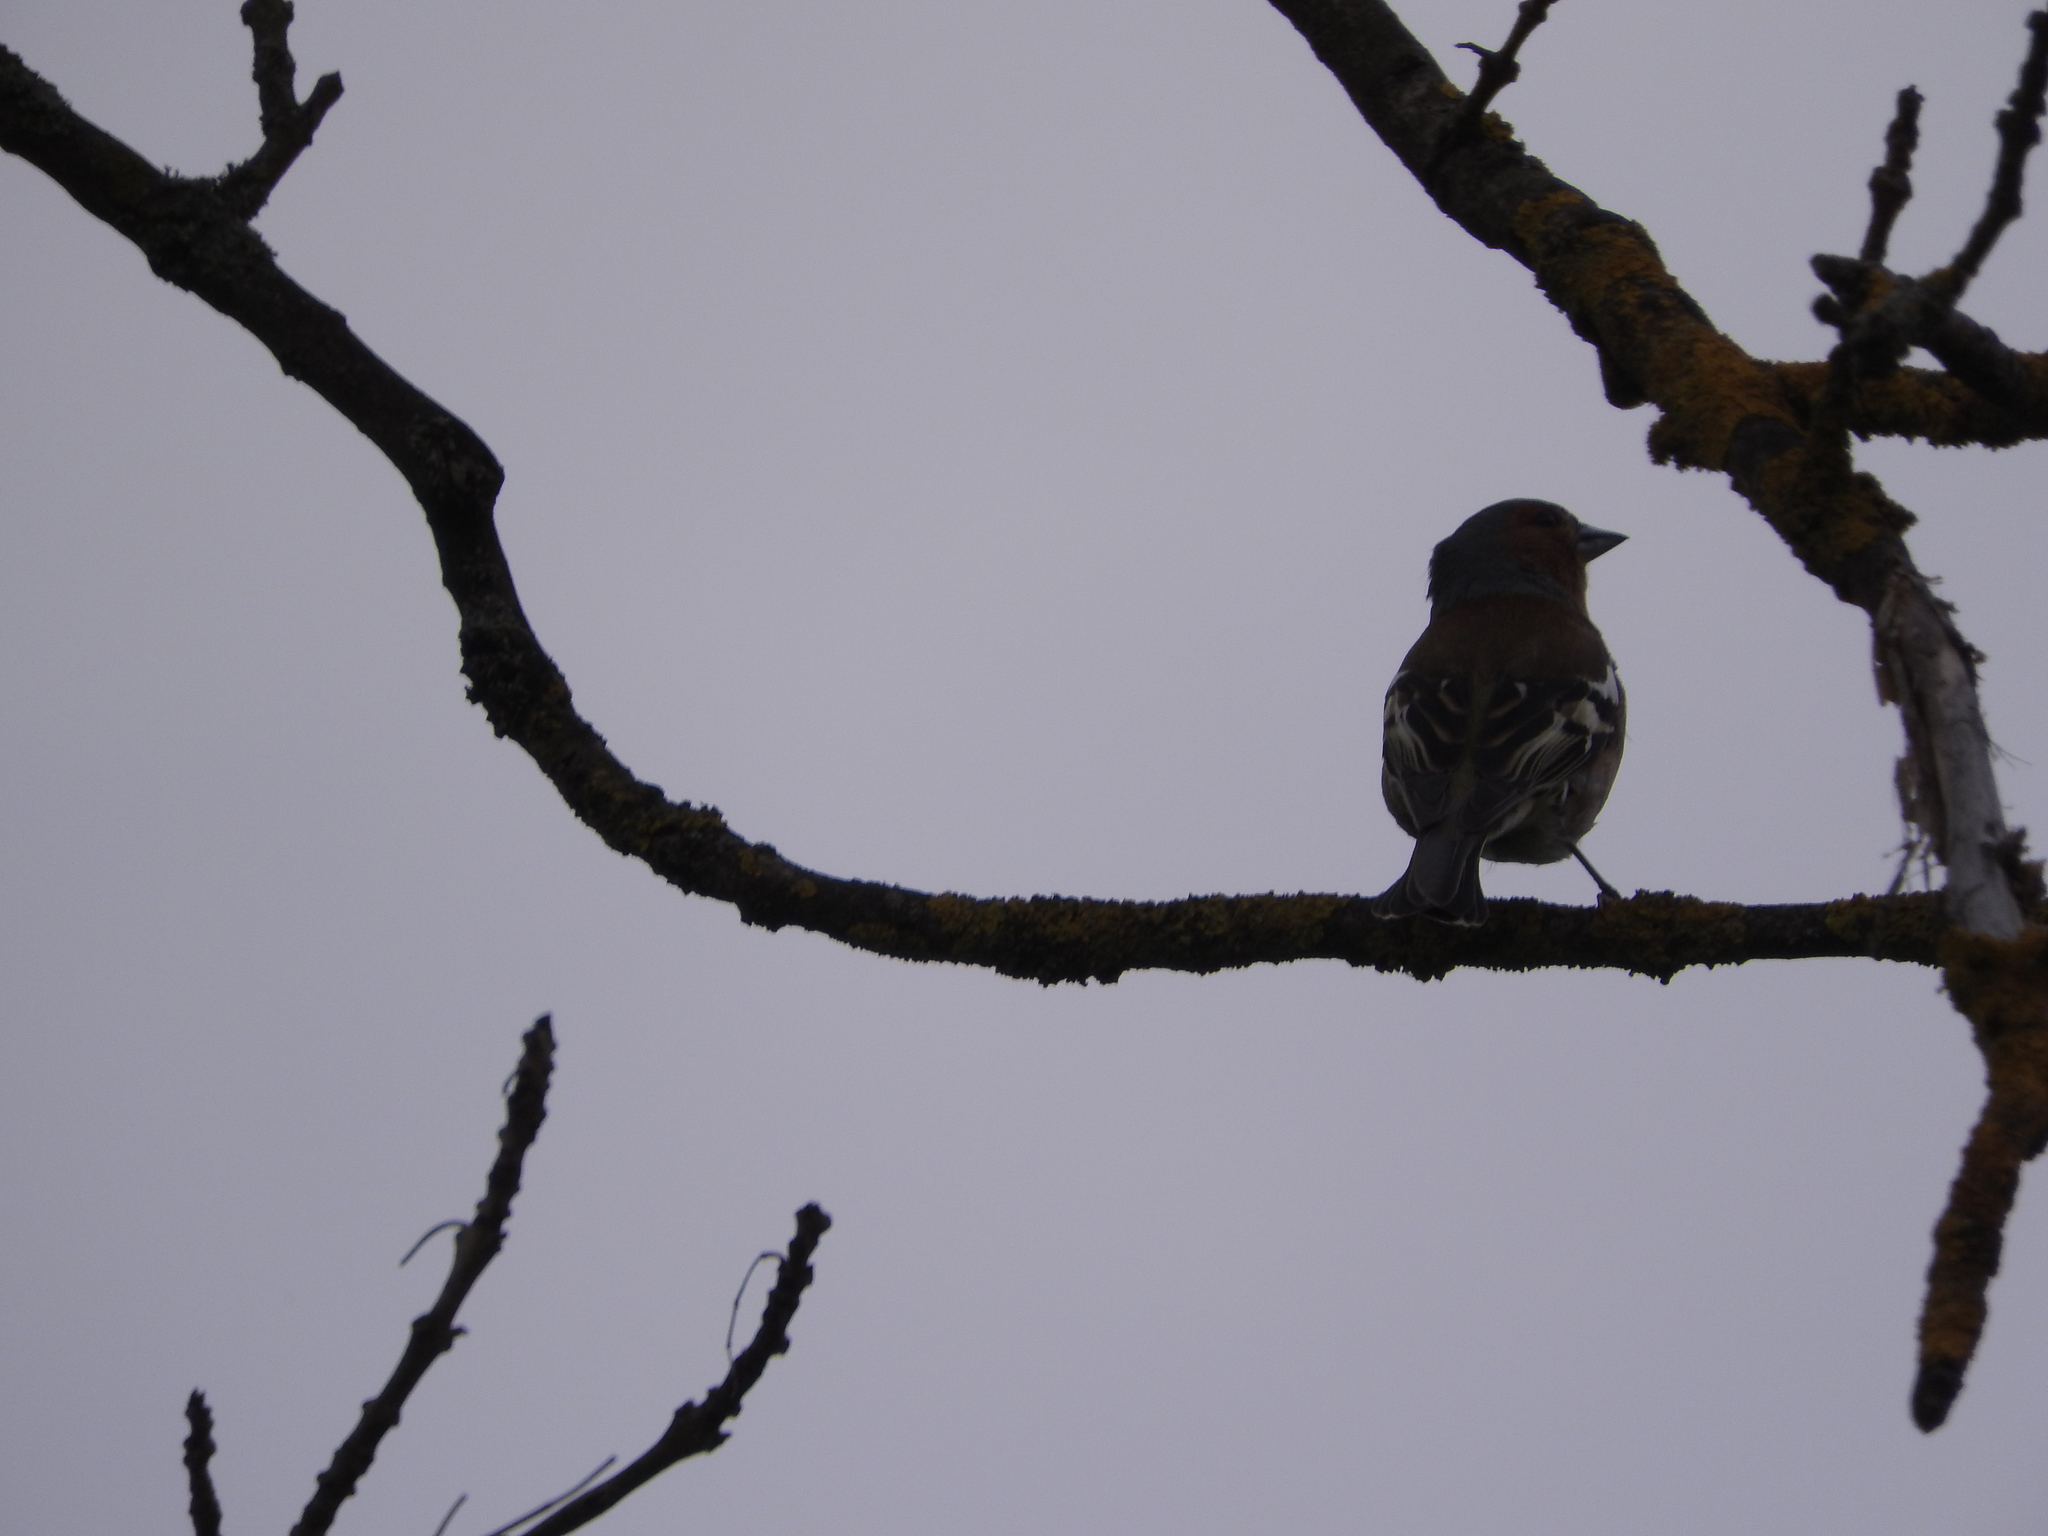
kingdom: Animalia
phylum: Chordata
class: Aves
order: Passeriformes
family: Fringillidae
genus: Fringilla
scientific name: Fringilla coelebs
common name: Common chaffinch
